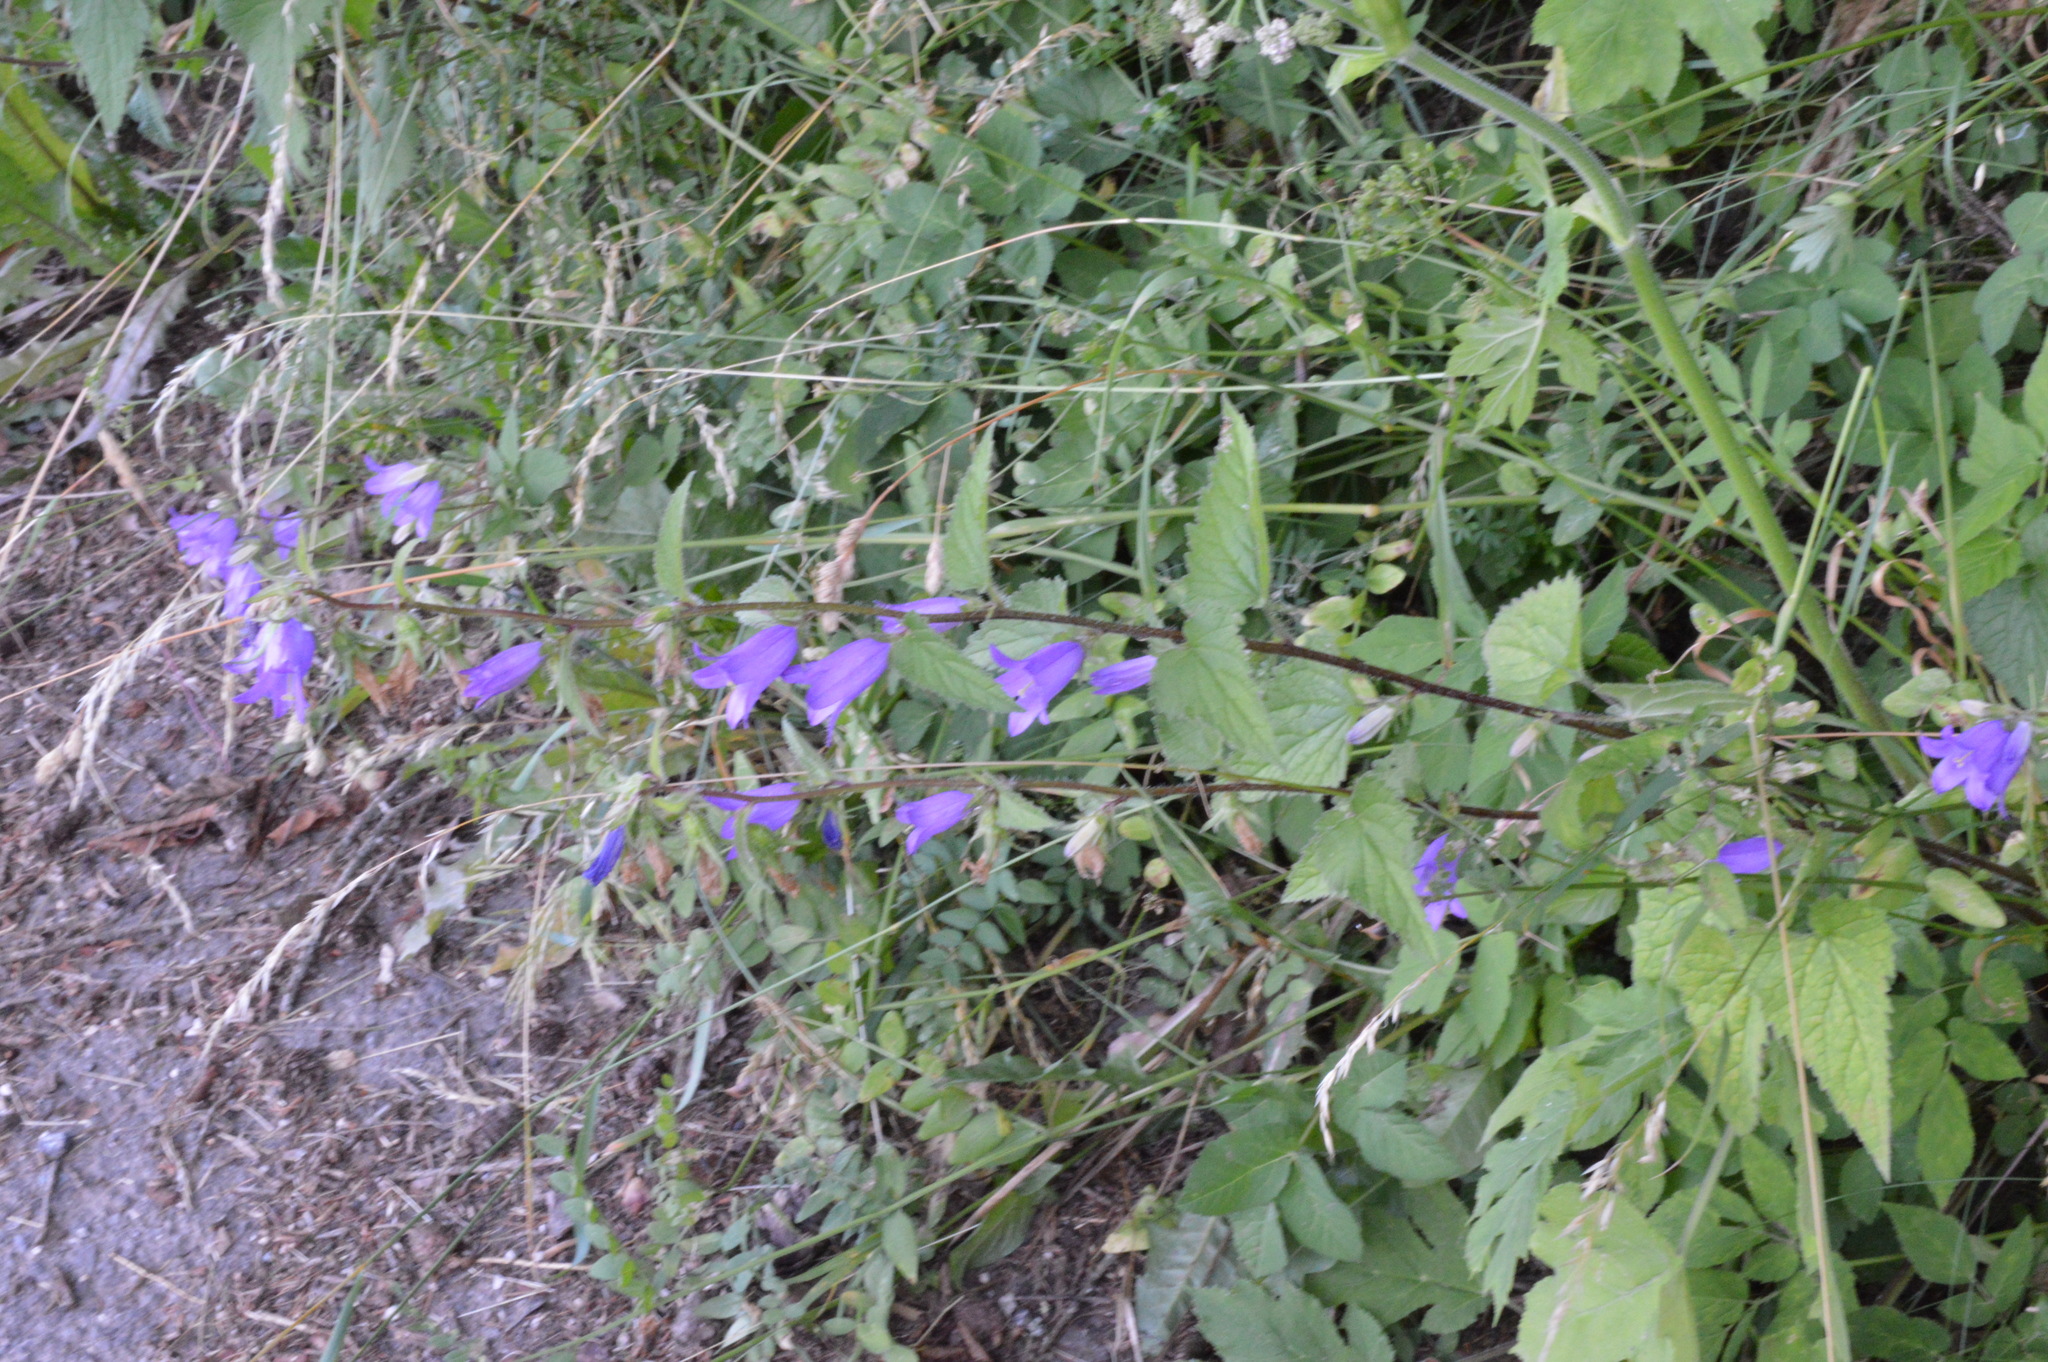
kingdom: Plantae
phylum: Tracheophyta
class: Magnoliopsida
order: Asterales
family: Campanulaceae
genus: Campanula
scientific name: Campanula trachelium
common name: Nettle-leaved bellflower
